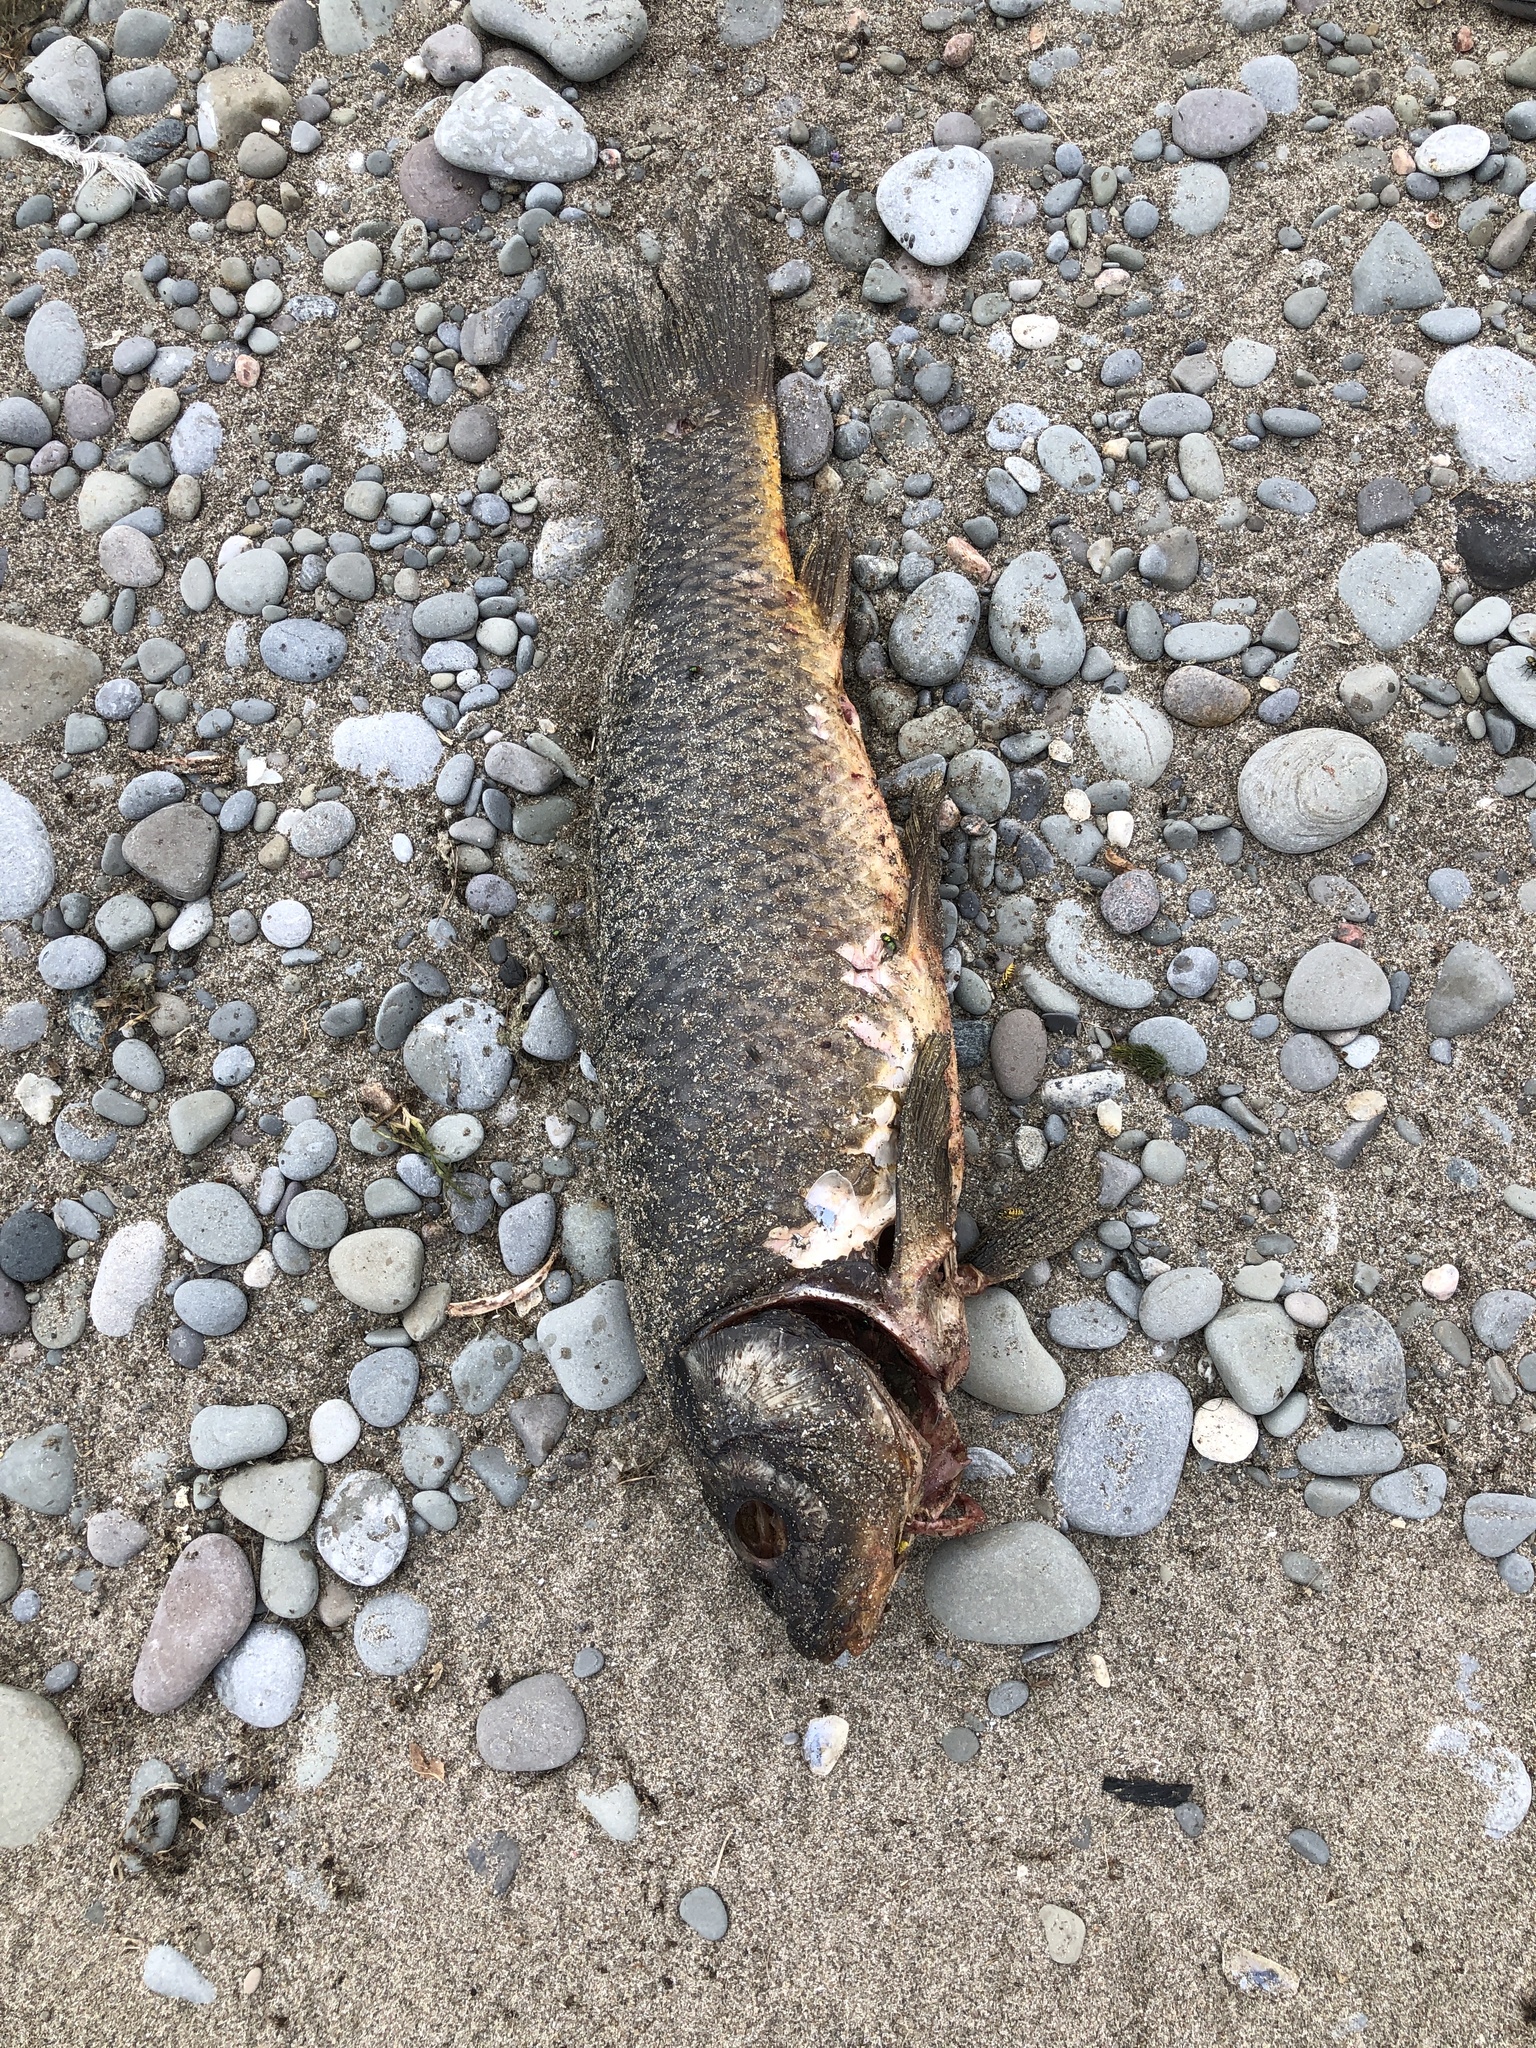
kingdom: Animalia
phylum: Chordata
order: Cypriniformes
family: Cyprinidae
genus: Cyprinus
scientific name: Cyprinus carpio
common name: Common carp
